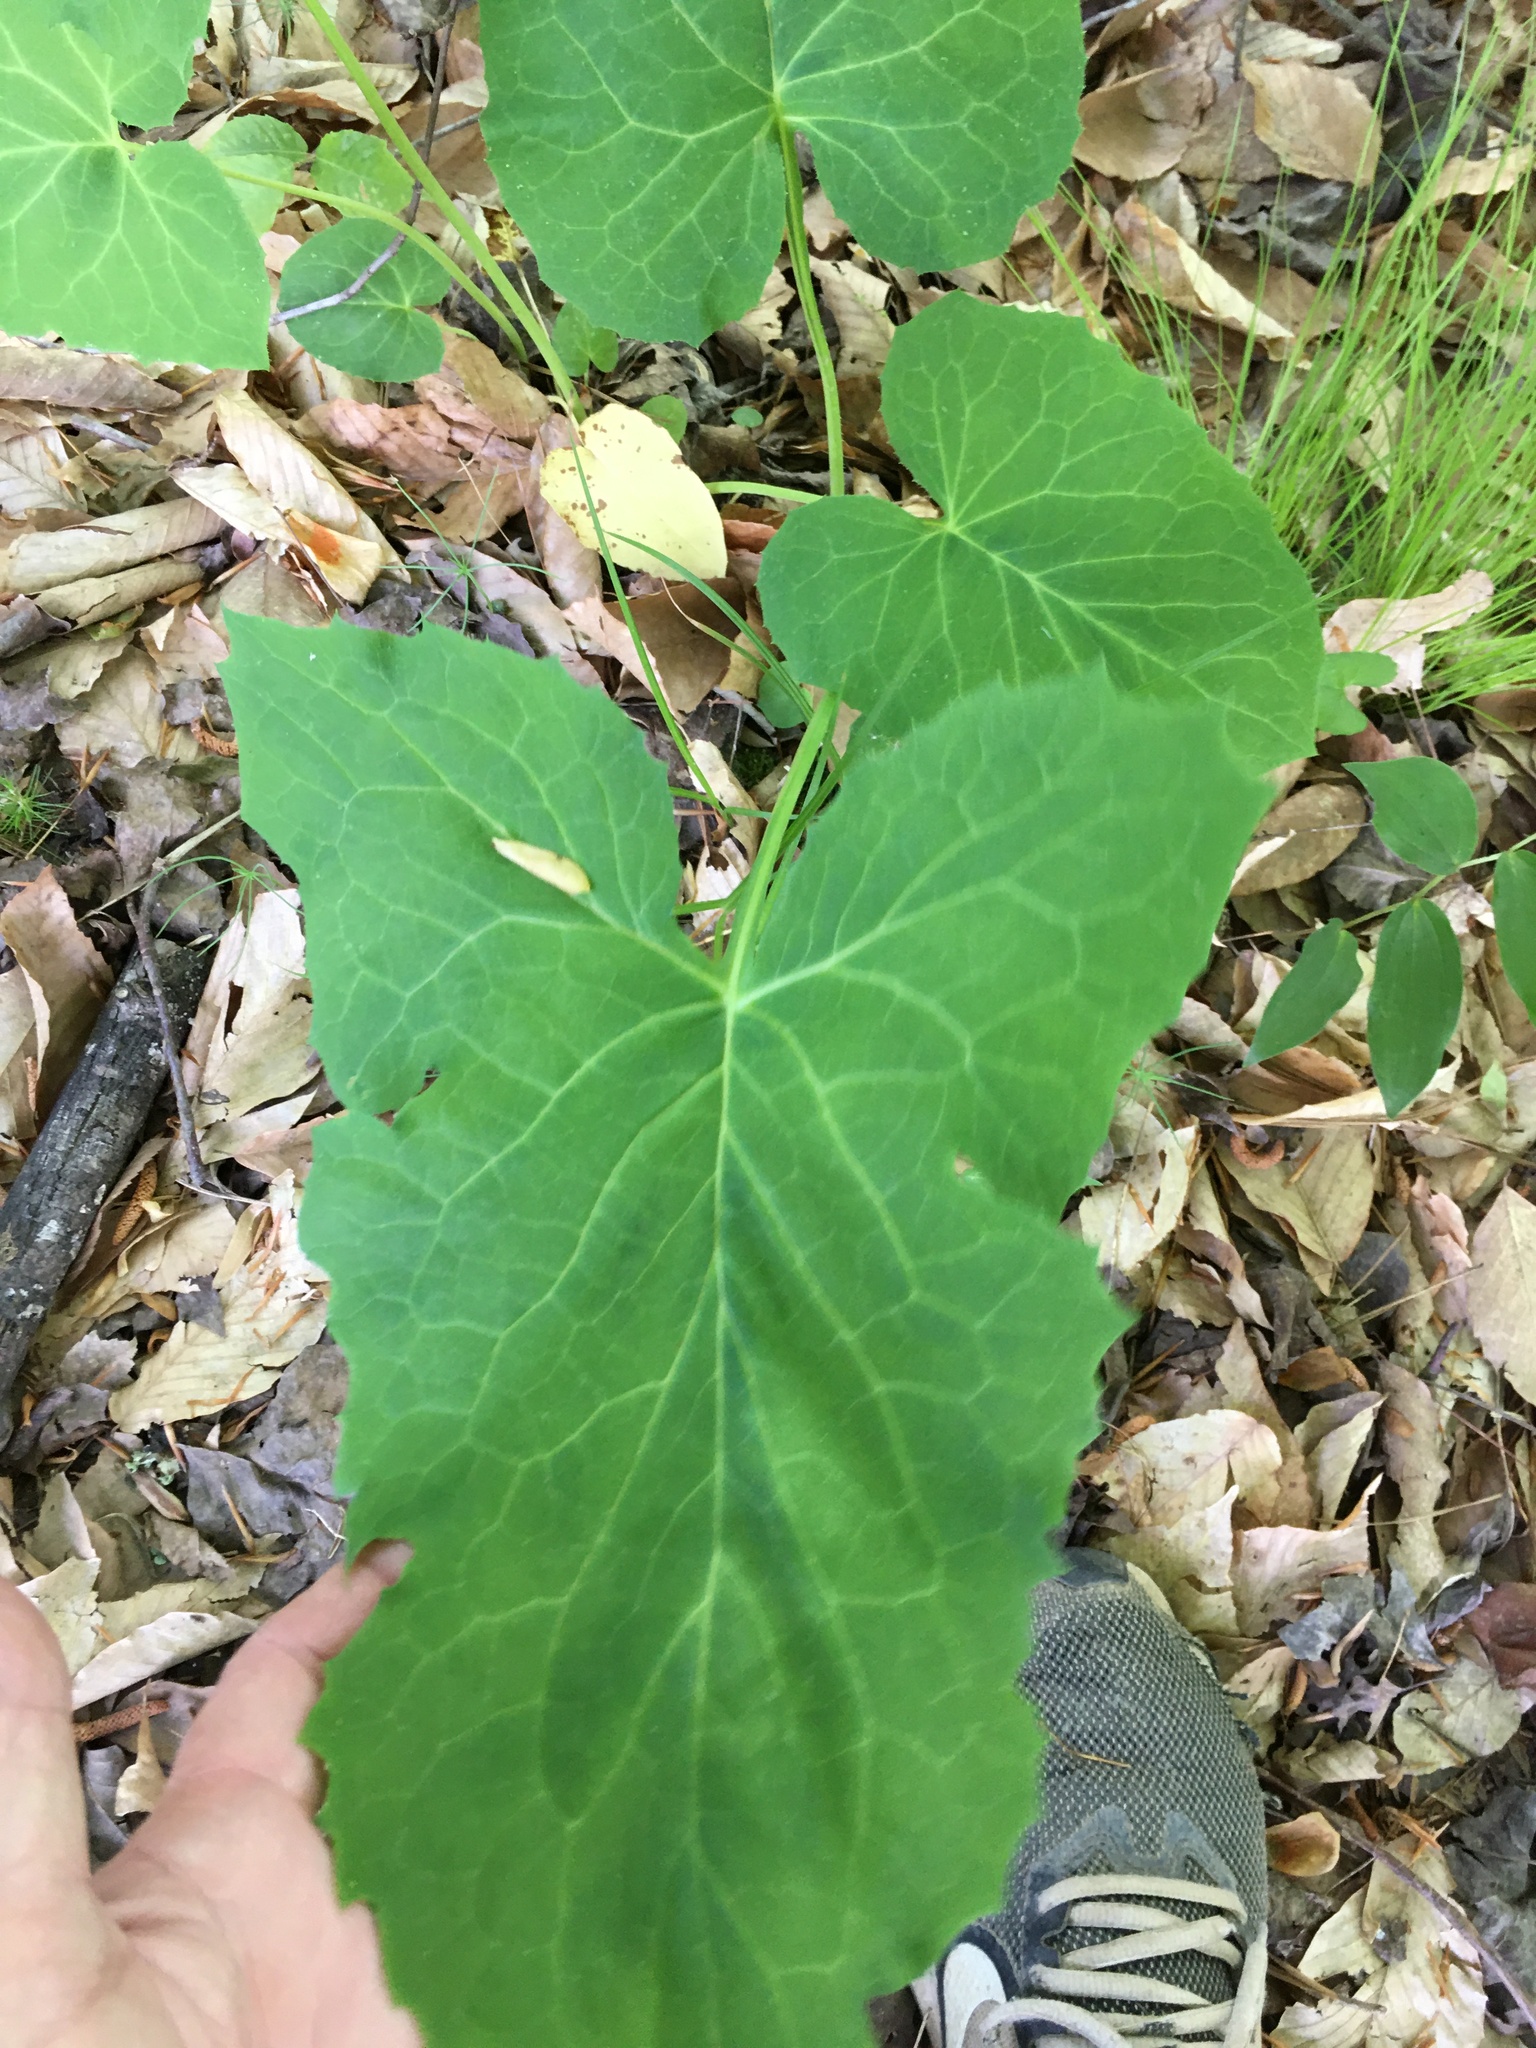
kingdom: Plantae
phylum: Tracheophyta
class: Magnoliopsida
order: Asterales
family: Asteraceae
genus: Nabalus
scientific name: Nabalus altissima
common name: Tall rattlesnakeroot
